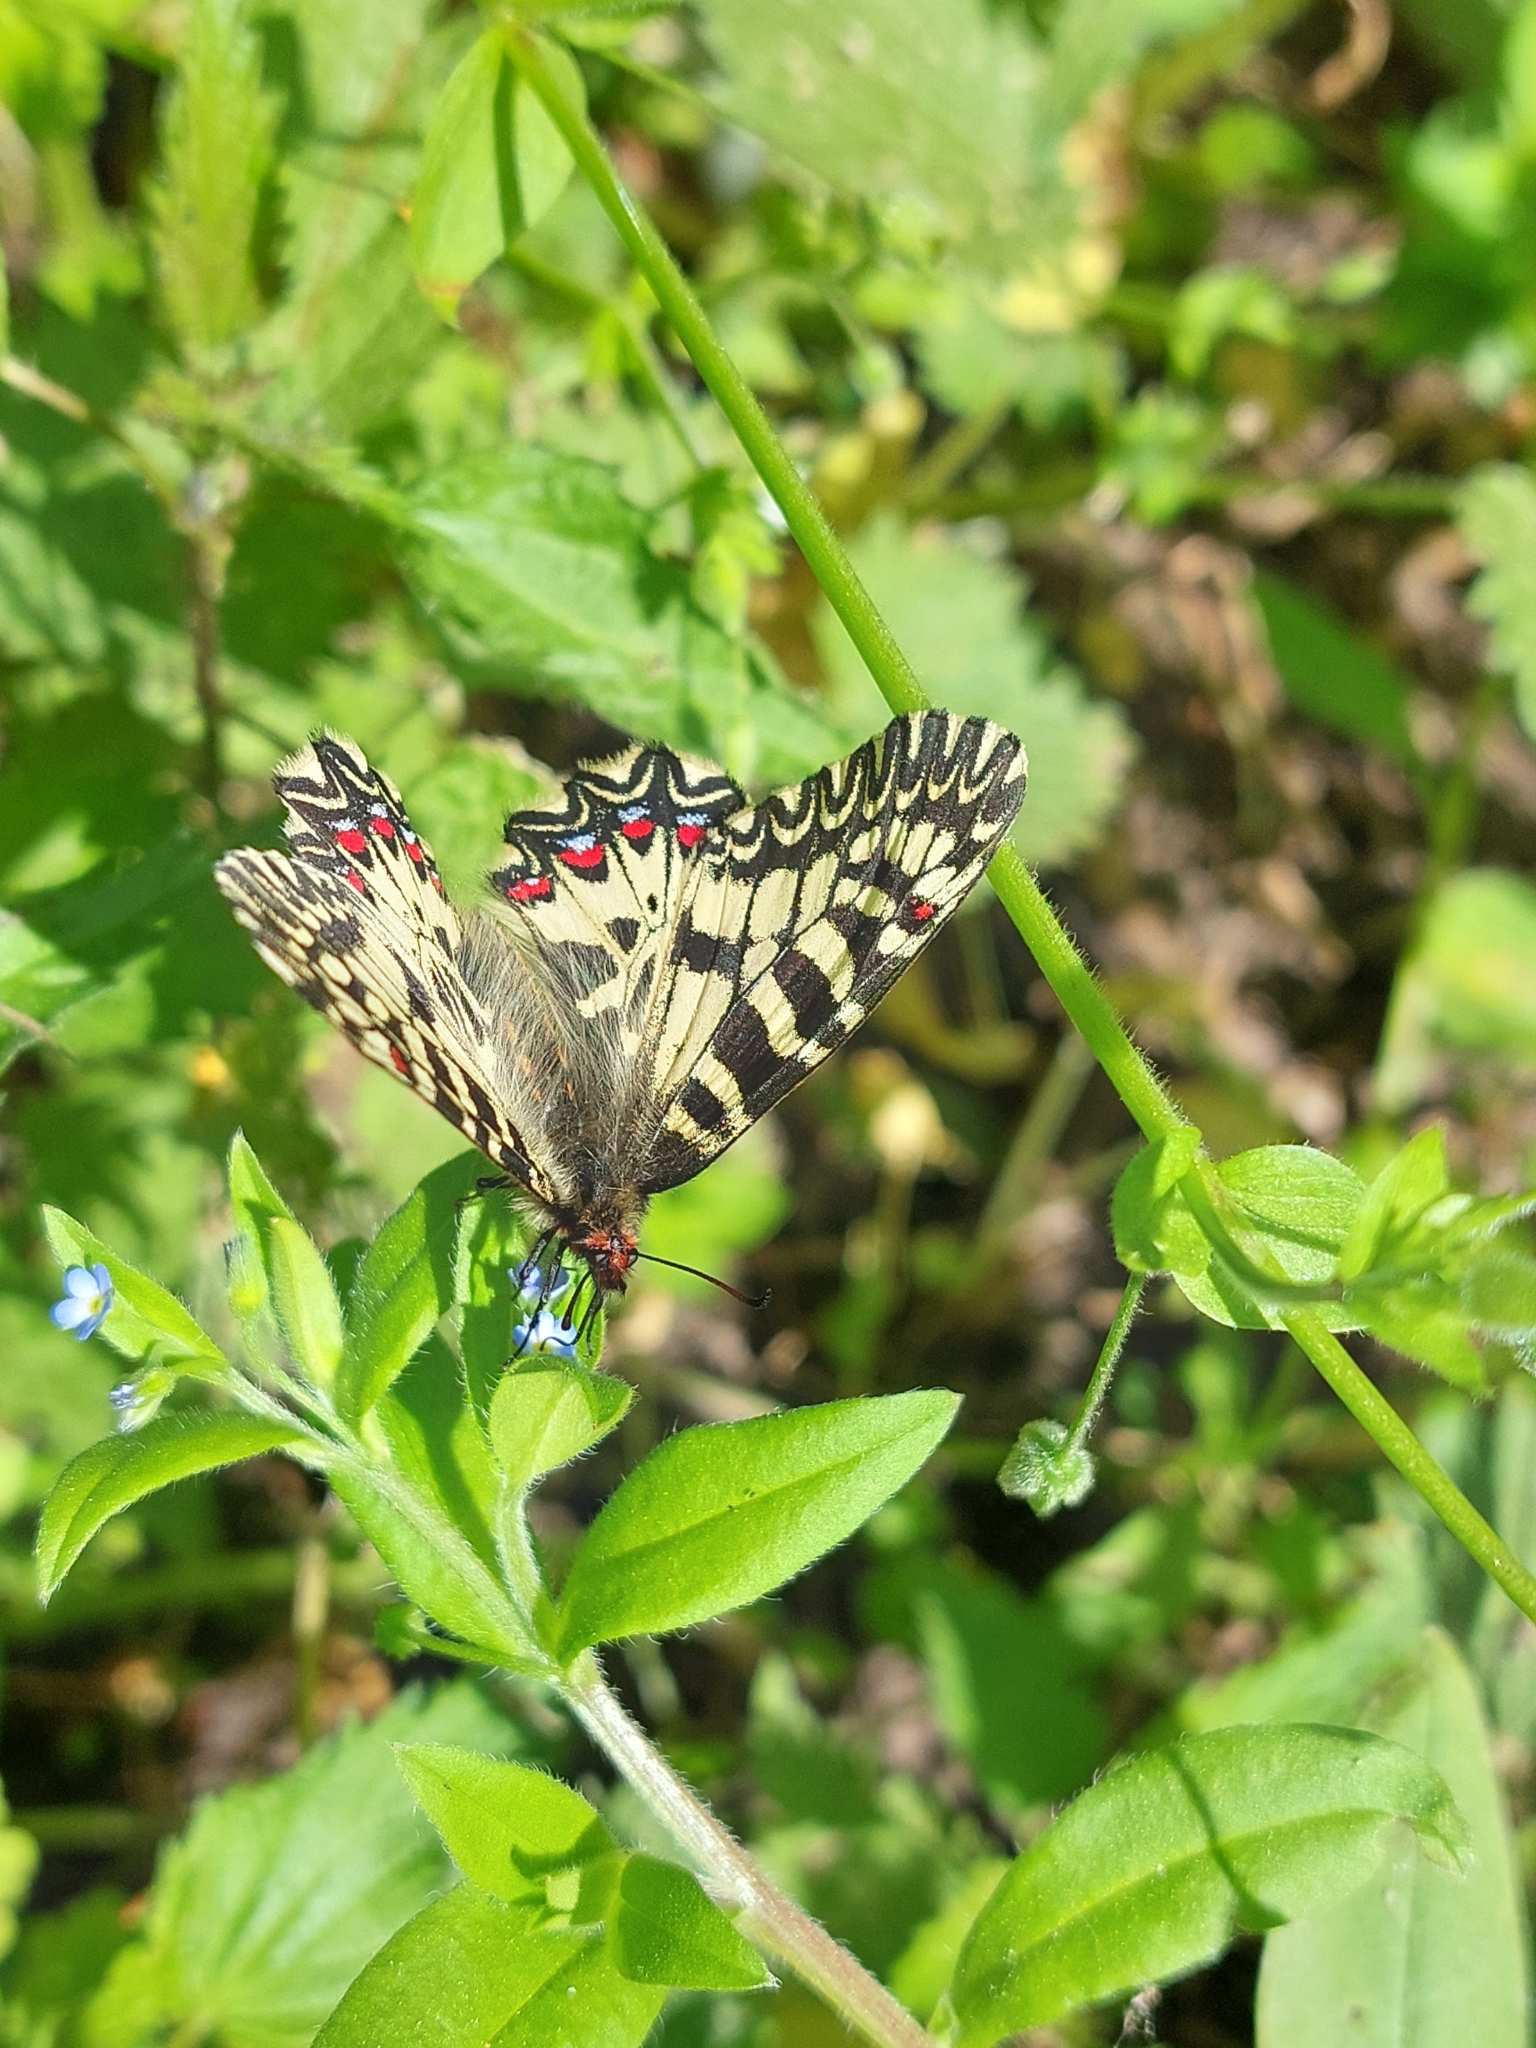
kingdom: Animalia
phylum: Arthropoda
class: Insecta
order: Lepidoptera
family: Papilionidae
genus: Zerynthia
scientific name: Zerynthia polyxena
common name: Southern festoon
